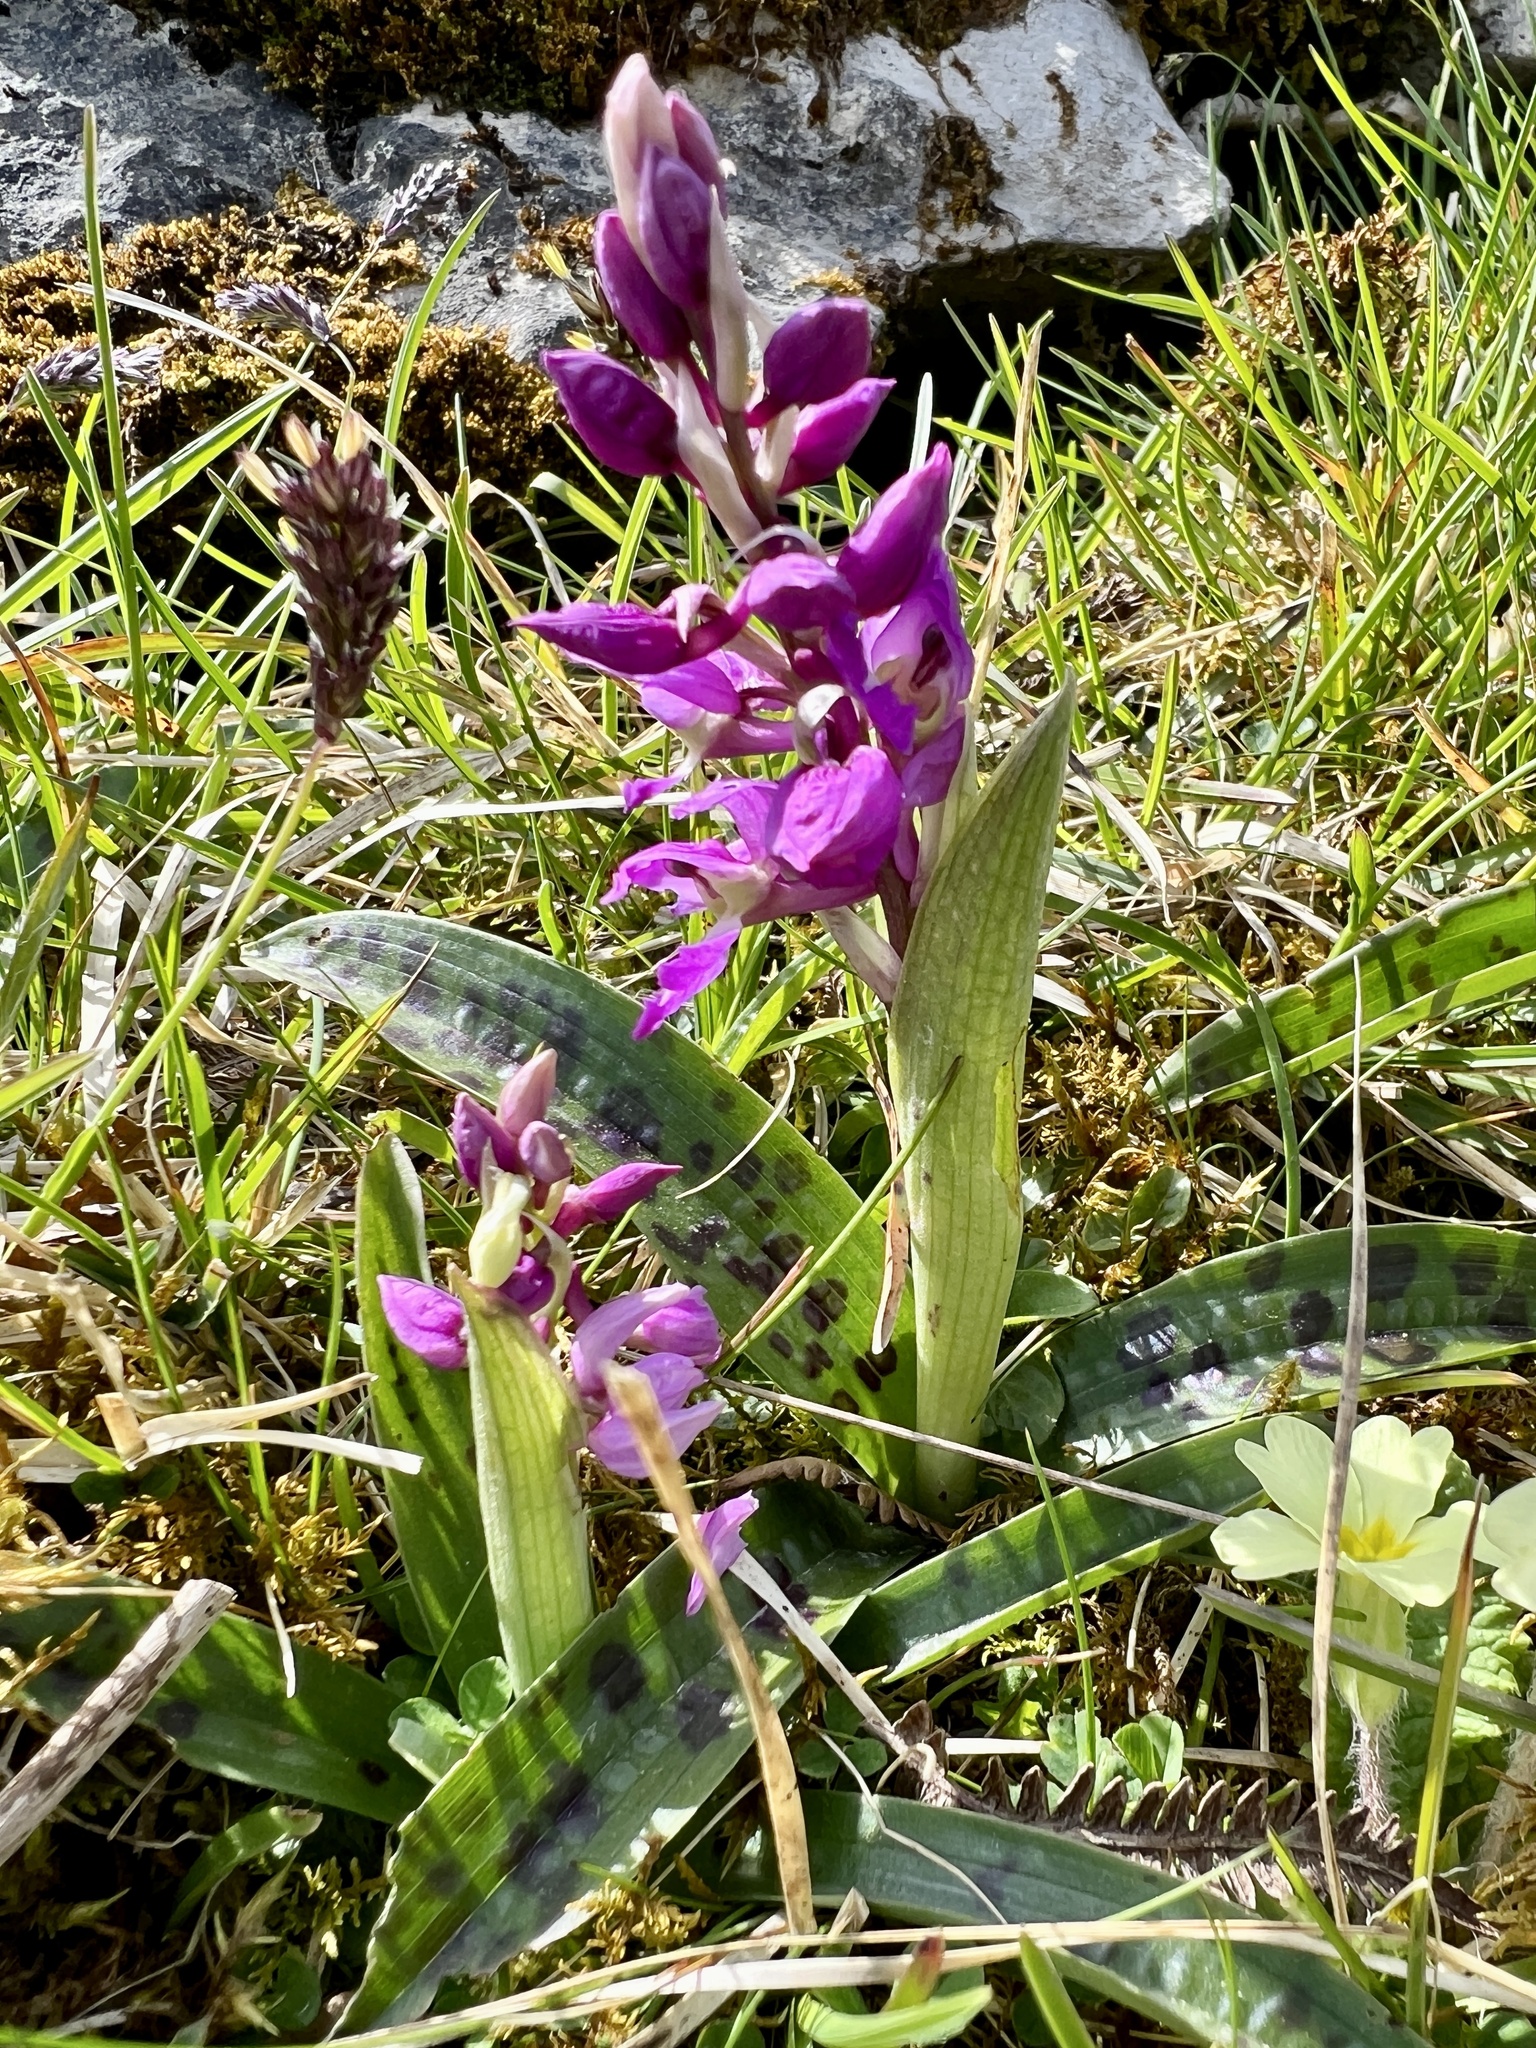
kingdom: Plantae
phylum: Tracheophyta
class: Liliopsida
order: Asparagales
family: Orchidaceae
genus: Orchis
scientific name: Orchis mascula
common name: Early-purple orchid
